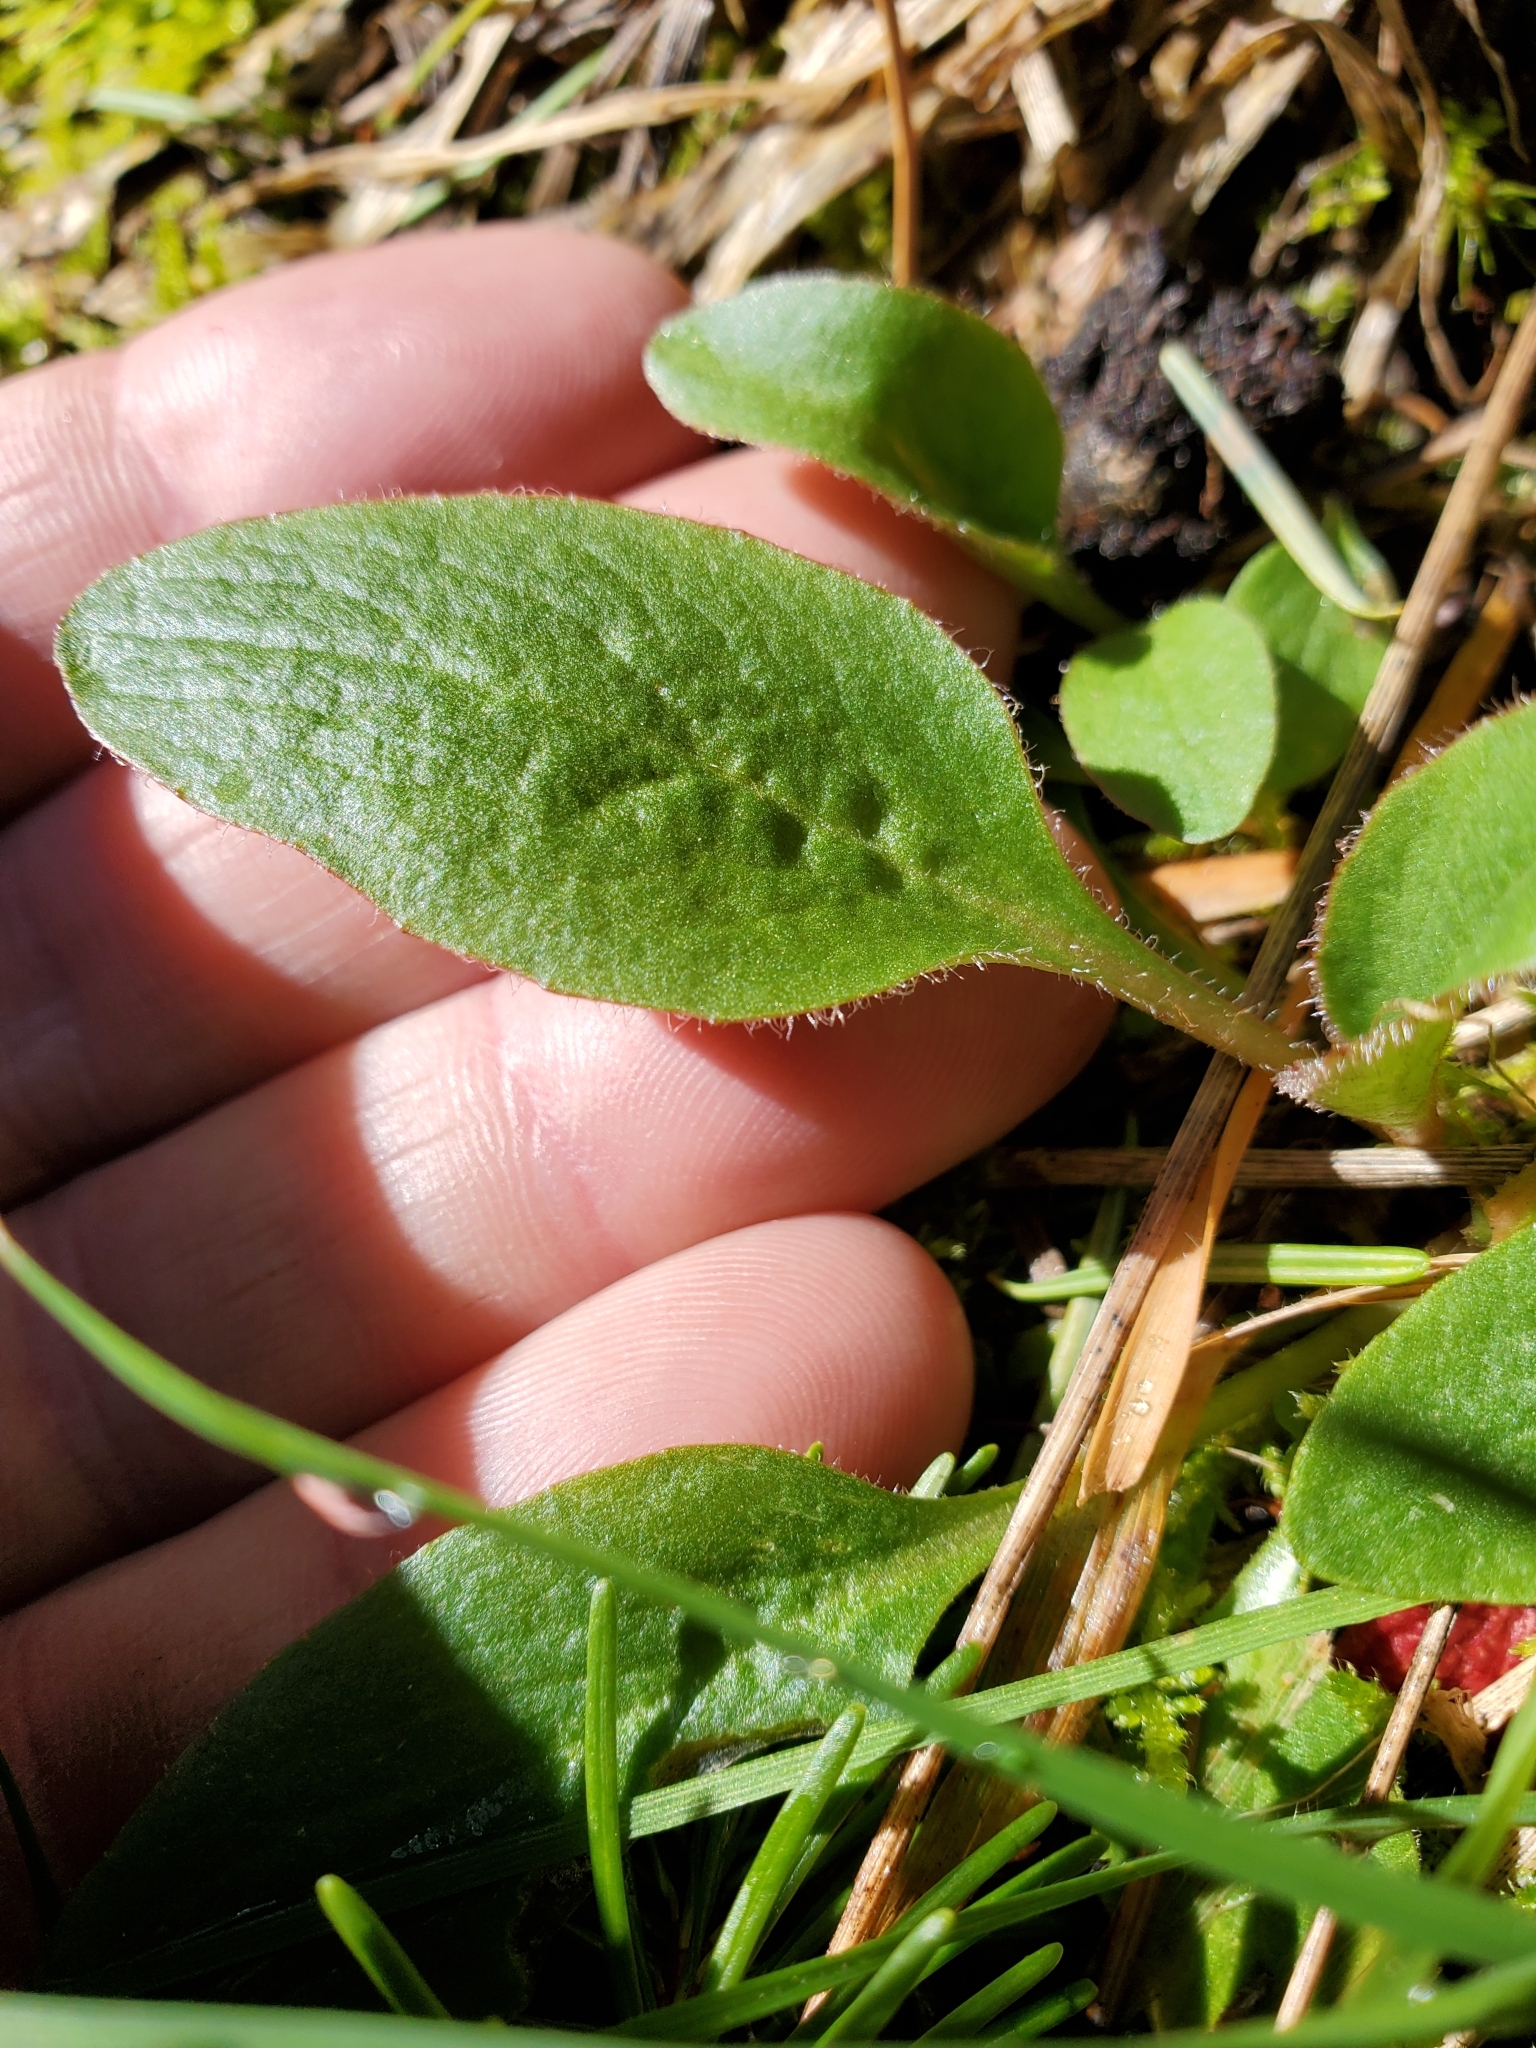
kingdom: Plantae
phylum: Tracheophyta
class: Magnoliopsida
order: Saxifragales
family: Saxifragaceae
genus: Micranthes
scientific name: Micranthes integrifolia
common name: Wholeleaf saxifrage
